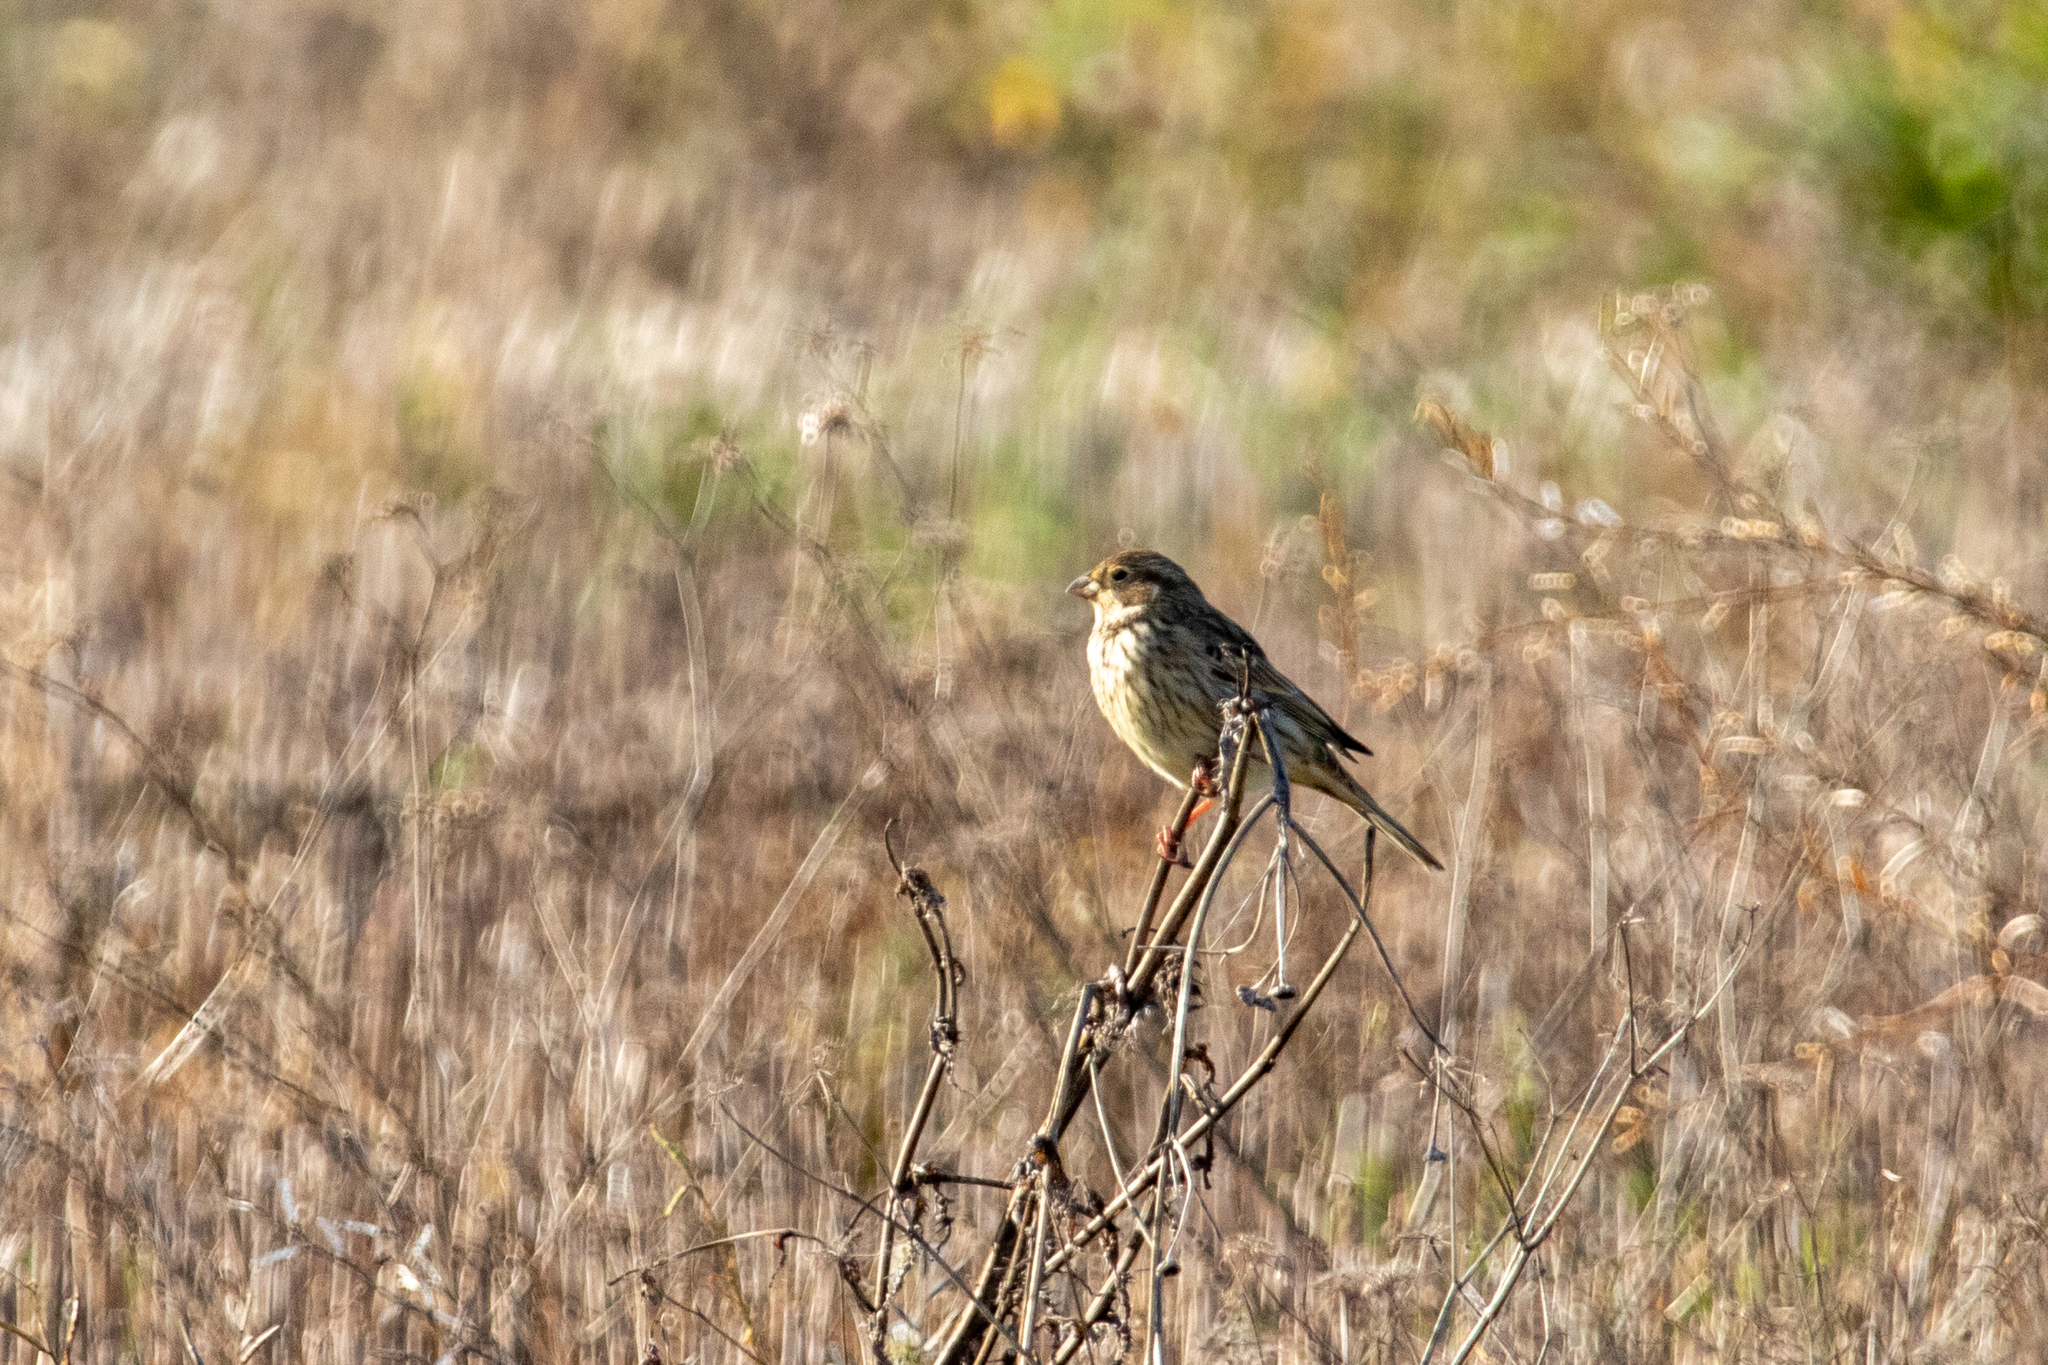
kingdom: Animalia
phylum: Chordata
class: Aves
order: Passeriformes
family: Emberizidae
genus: Emberiza
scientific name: Emberiza calandra
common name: Corn bunting
